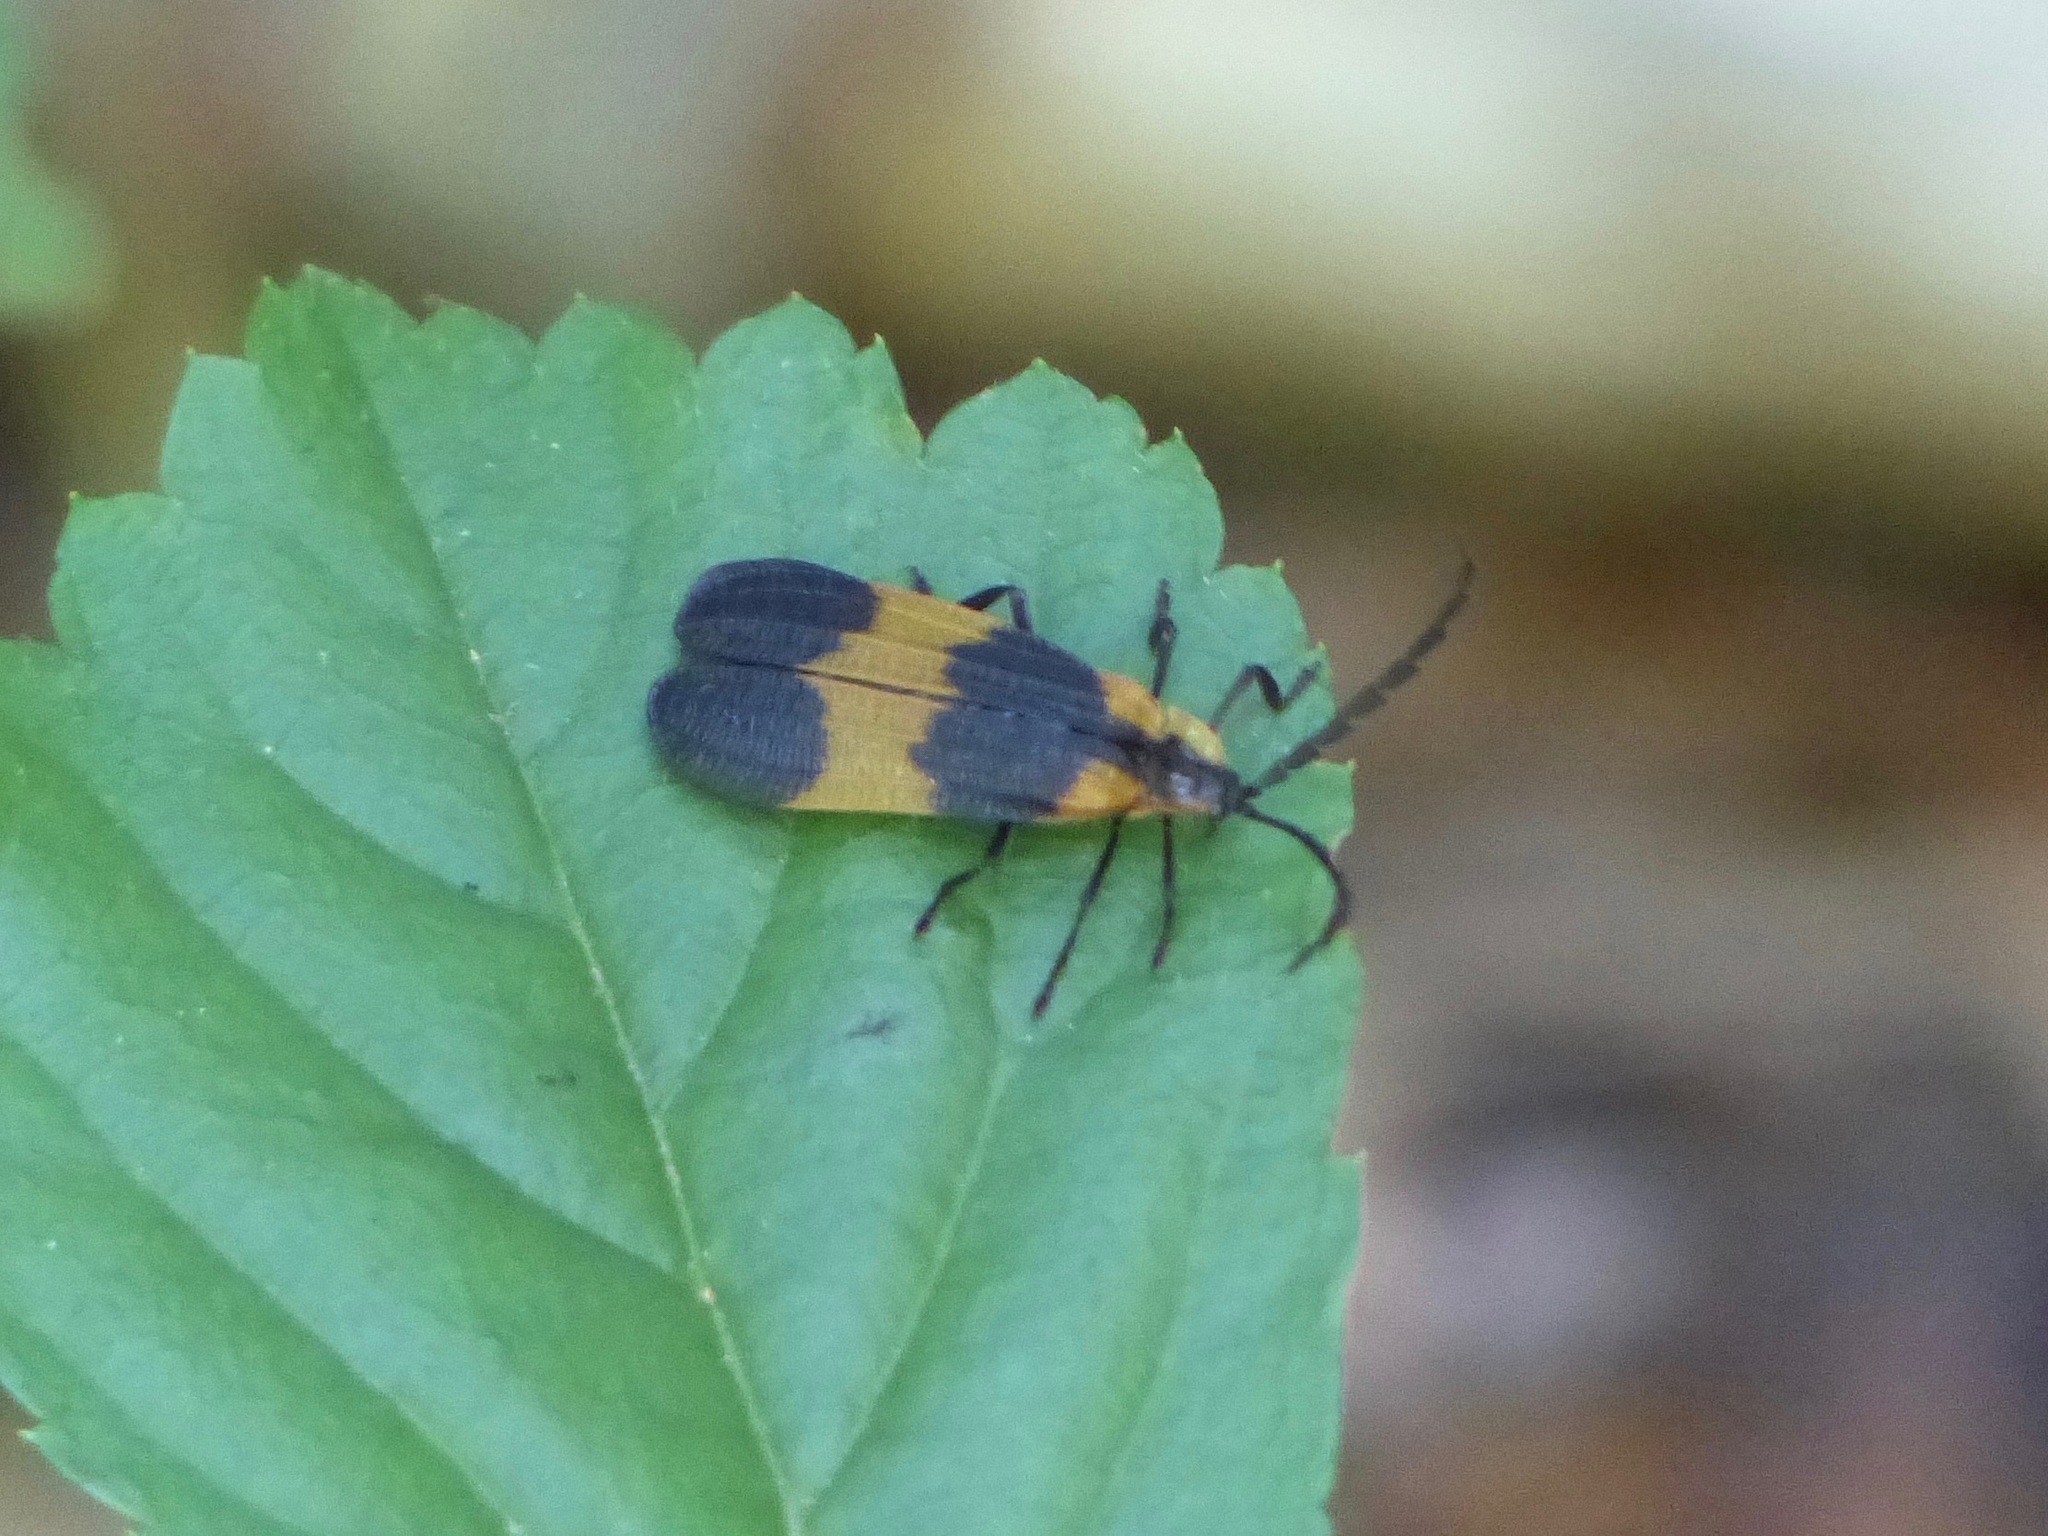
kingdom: Animalia
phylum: Arthropoda
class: Insecta
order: Coleoptera
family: Lycidae
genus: Calopteron
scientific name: Calopteron reticulatum
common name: Banded net-winged beetle
